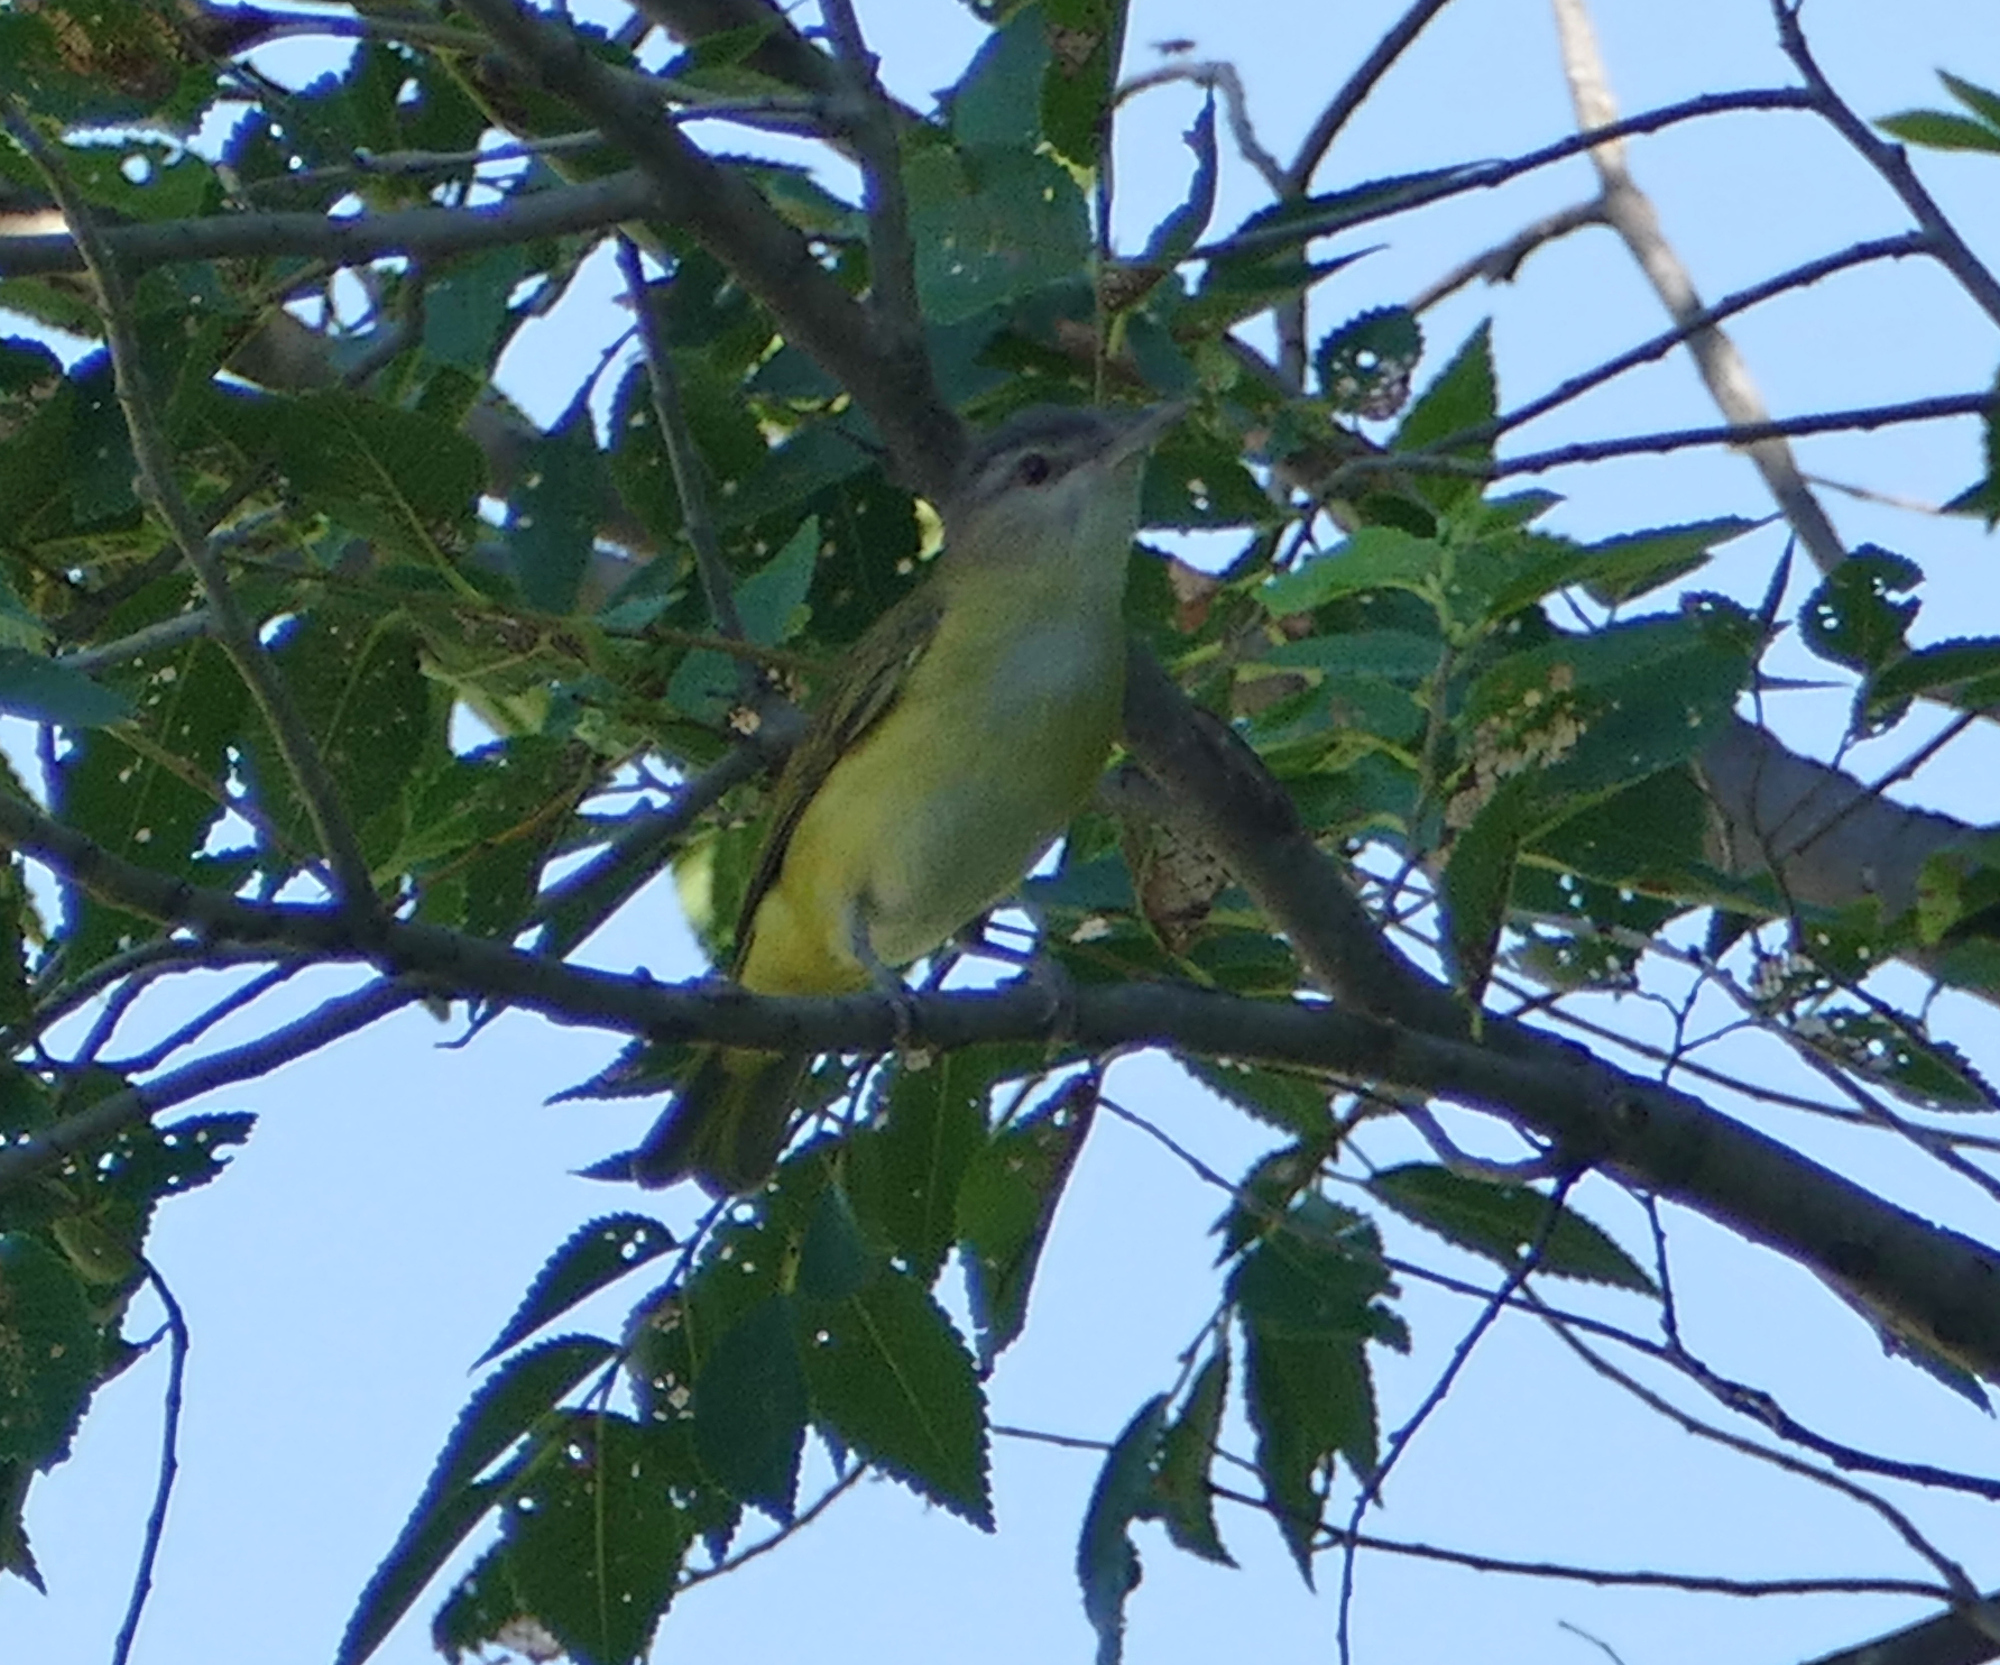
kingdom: Animalia
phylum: Chordata
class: Aves
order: Passeriformes
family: Vireonidae
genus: Vireo
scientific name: Vireo flavoviridis
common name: Yellow-green vireo
